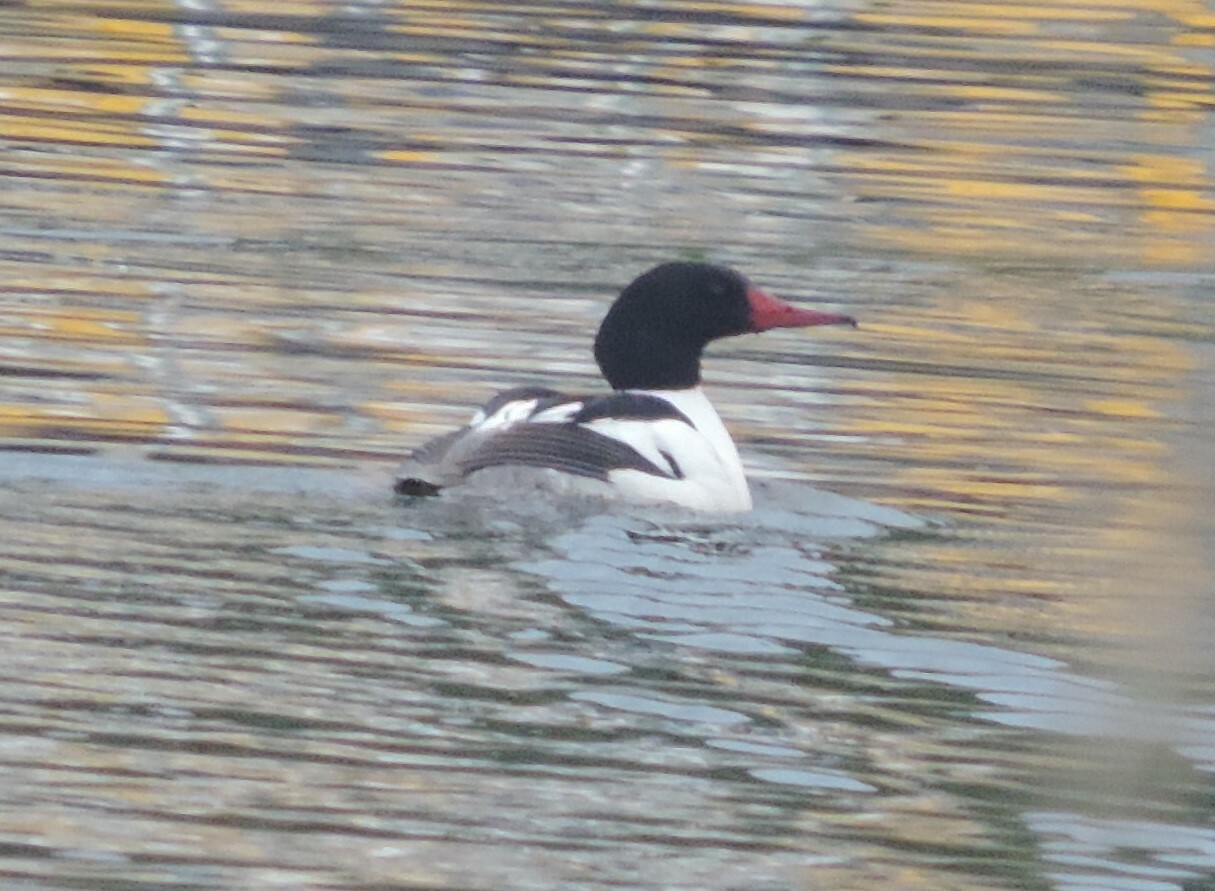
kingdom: Animalia
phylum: Chordata
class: Aves
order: Anseriformes
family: Anatidae
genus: Mergus
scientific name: Mergus merganser
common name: Common merganser
